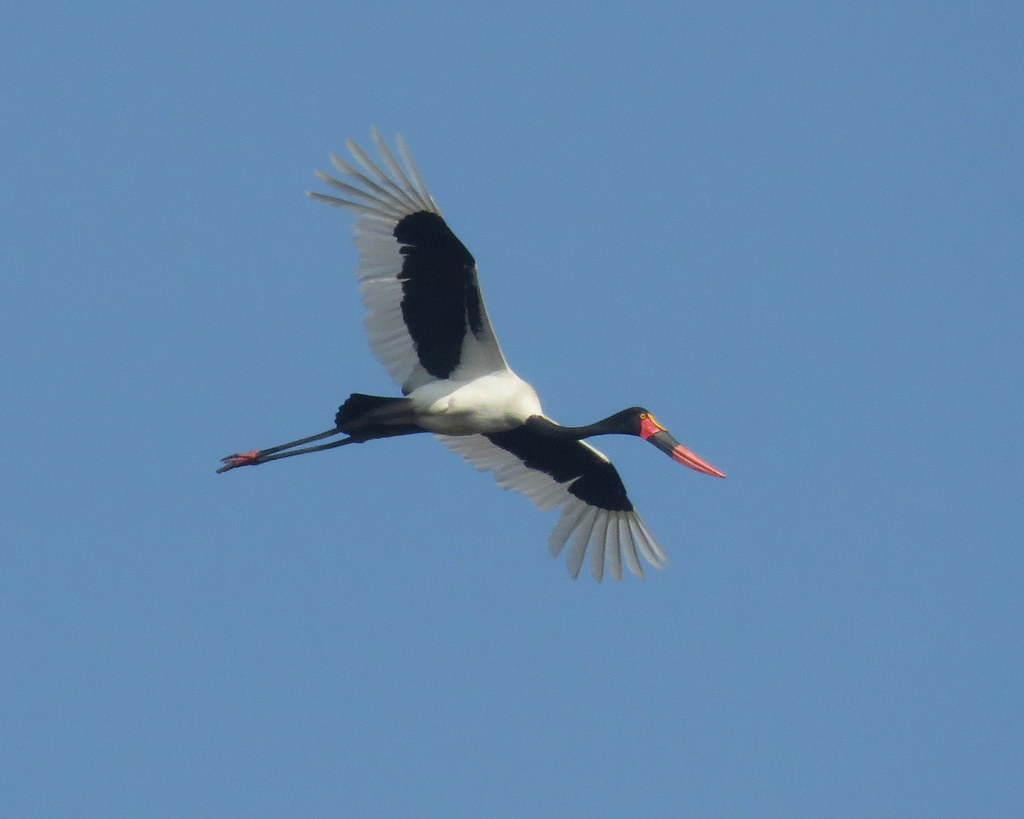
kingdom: Animalia
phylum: Chordata
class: Aves
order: Ciconiiformes
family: Ciconiidae
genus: Ephippiorhynchus
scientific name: Ephippiorhynchus senegalensis
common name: Saddle-billed stork
